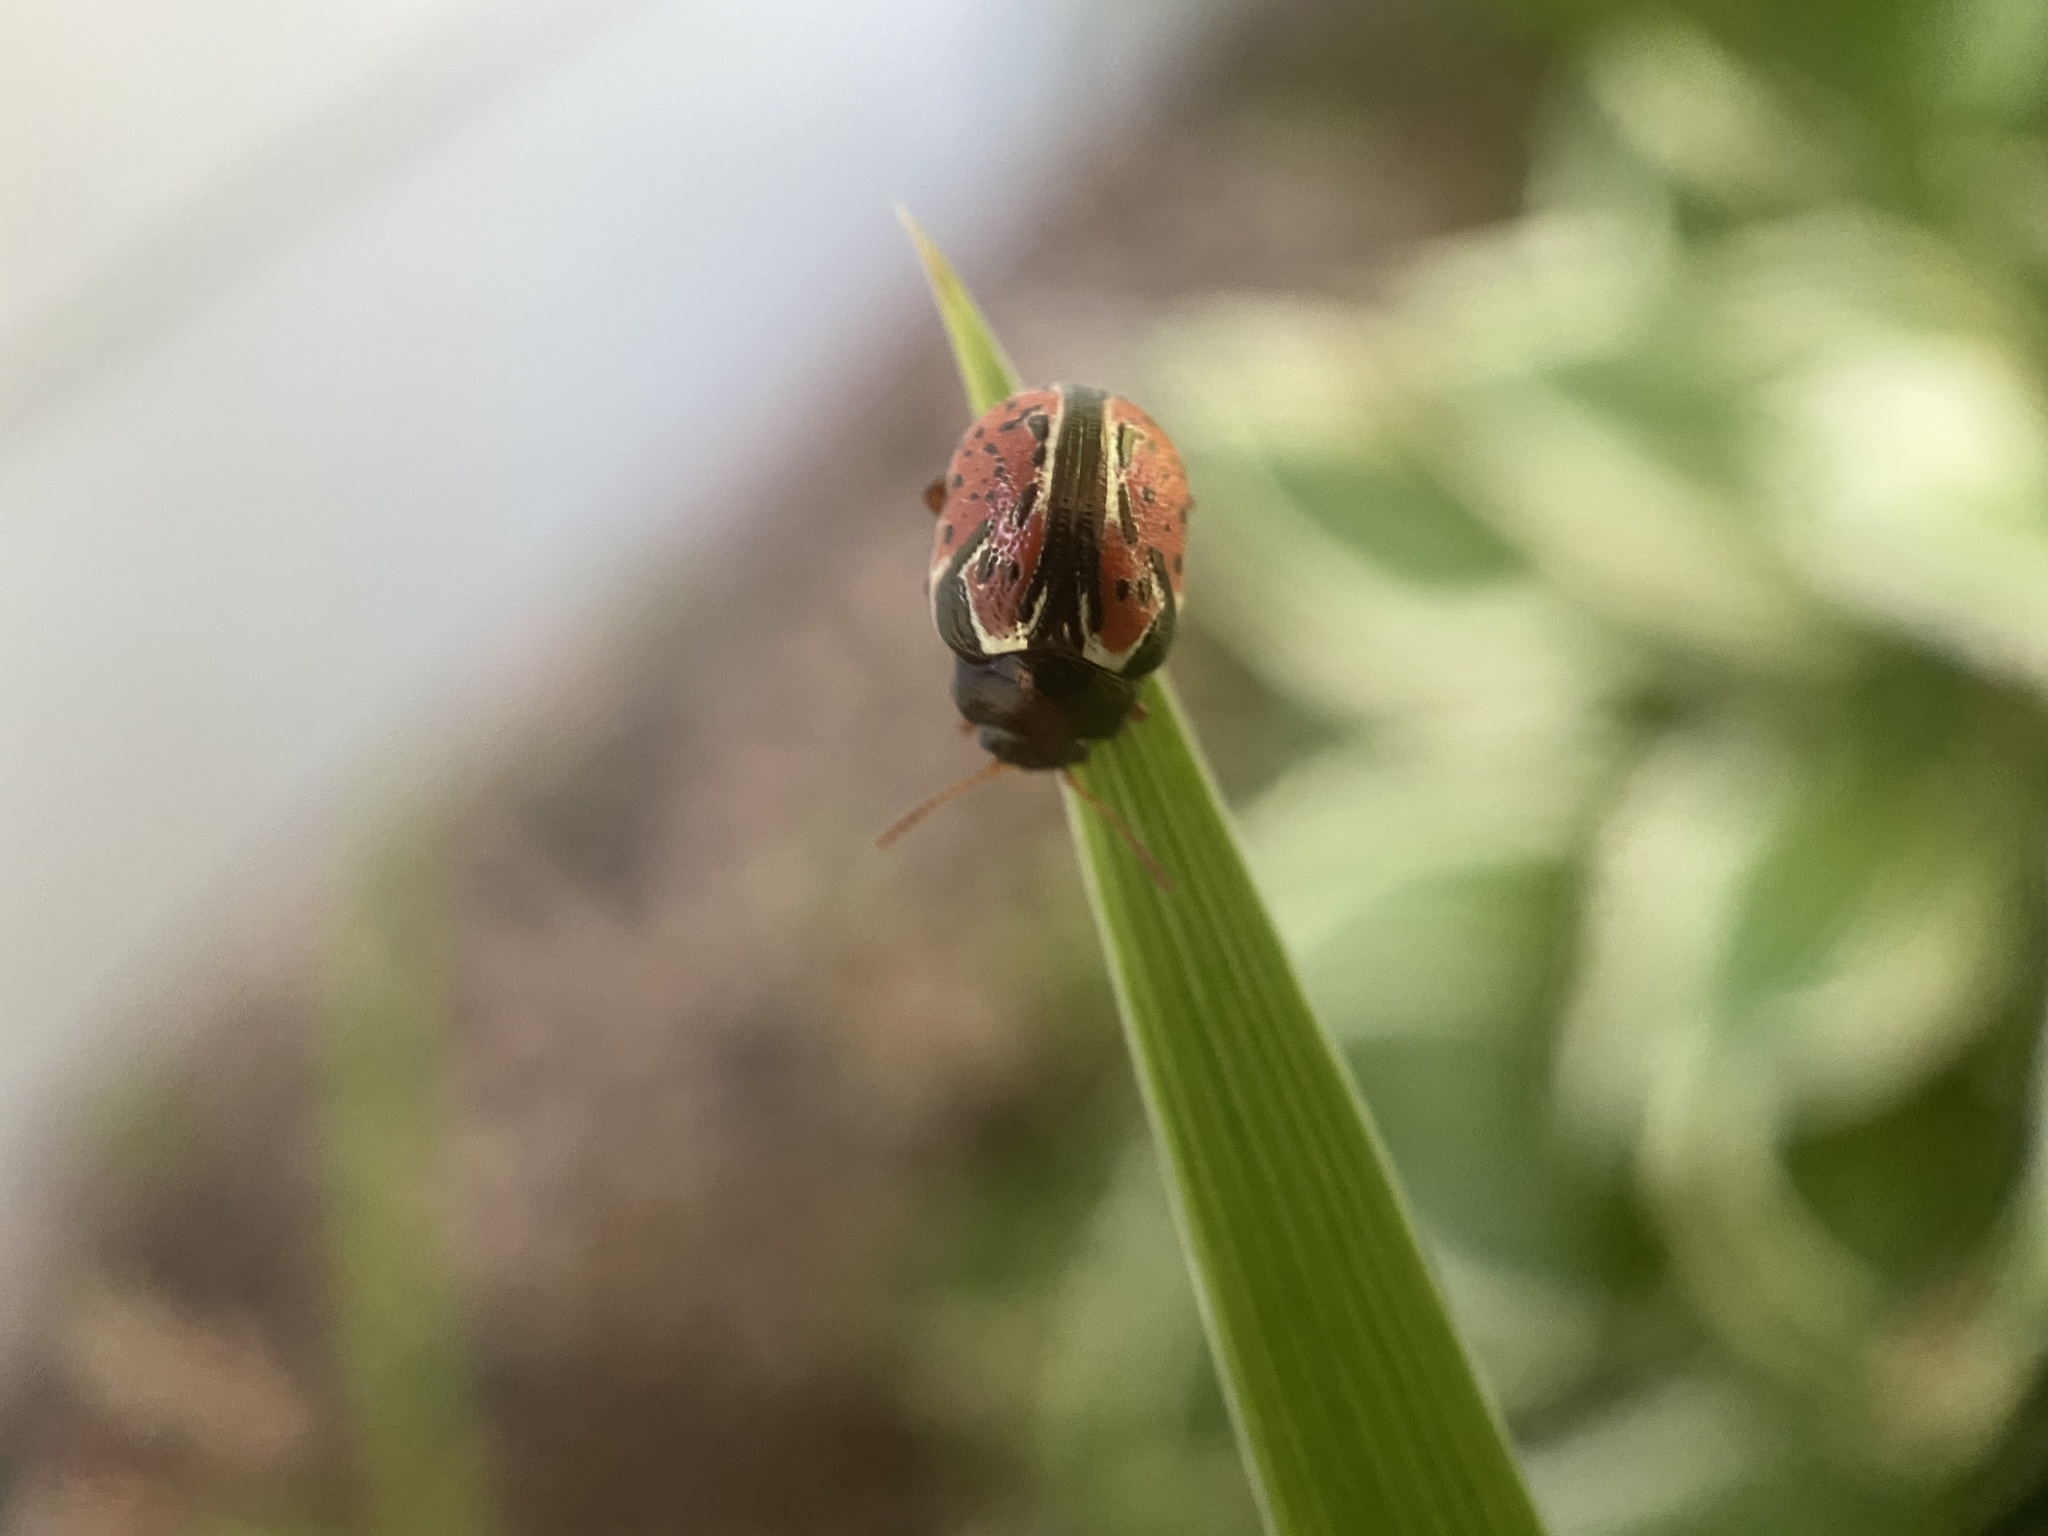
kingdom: Animalia
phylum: Arthropoda
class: Insecta
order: Coleoptera
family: Chrysomelidae
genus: Calligrapha
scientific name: Calligrapha spiraeae
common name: Ninebark calligrapha beetle
